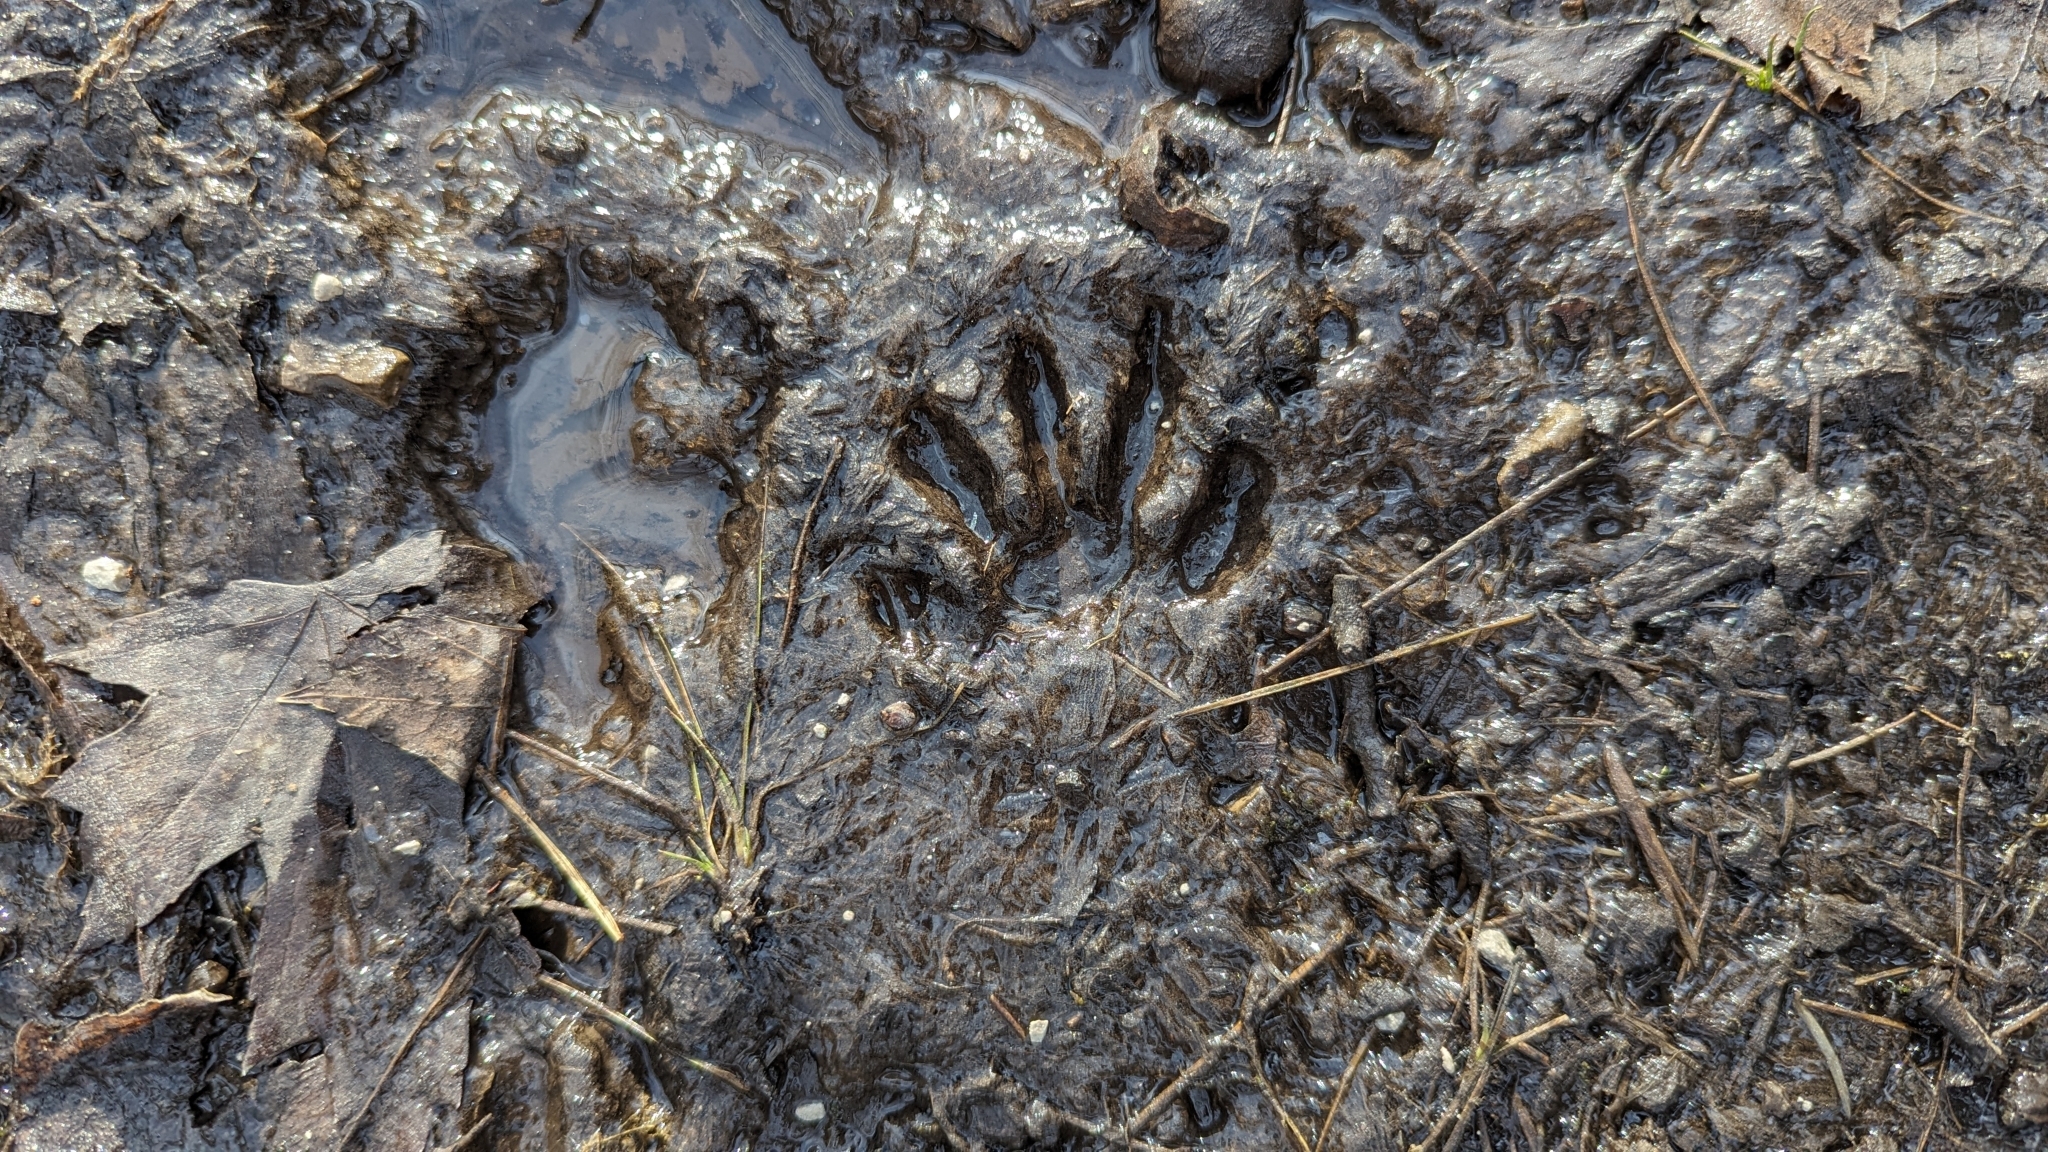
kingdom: Animalia
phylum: Chordata
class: Mammalia
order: Carnivora
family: Procyonidae
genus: Procyon
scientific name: Procyon lotor
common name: Raccoon
